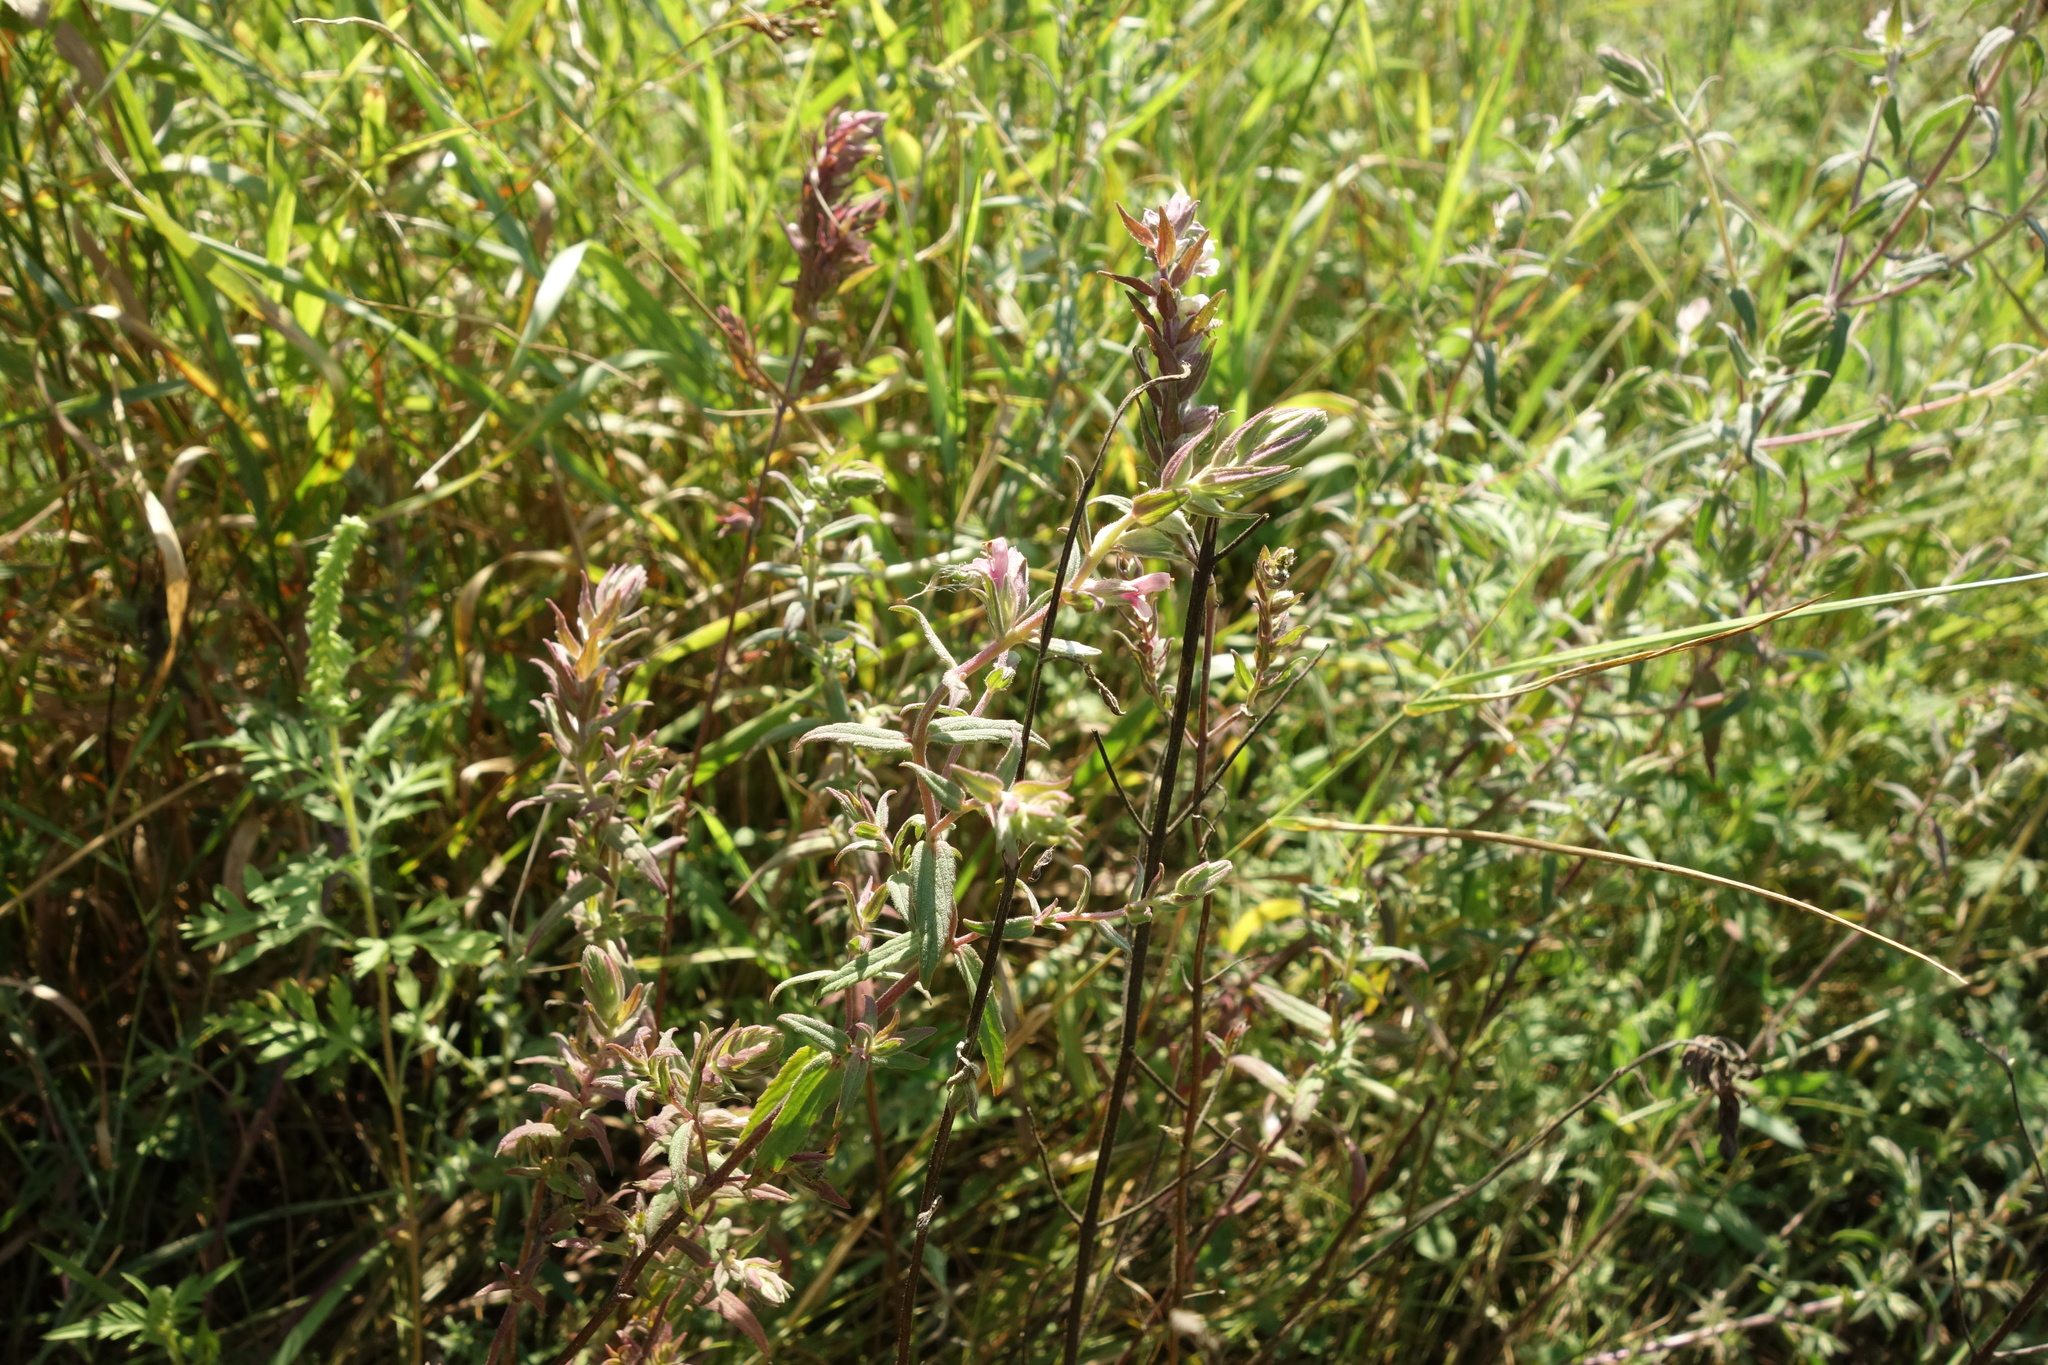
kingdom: Plantae
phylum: Tracheophyta
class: Magnoliopsida
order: Lamiales
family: Orobanchaceae
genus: Odontites
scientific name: Odontites vulgaris
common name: Broomrape
